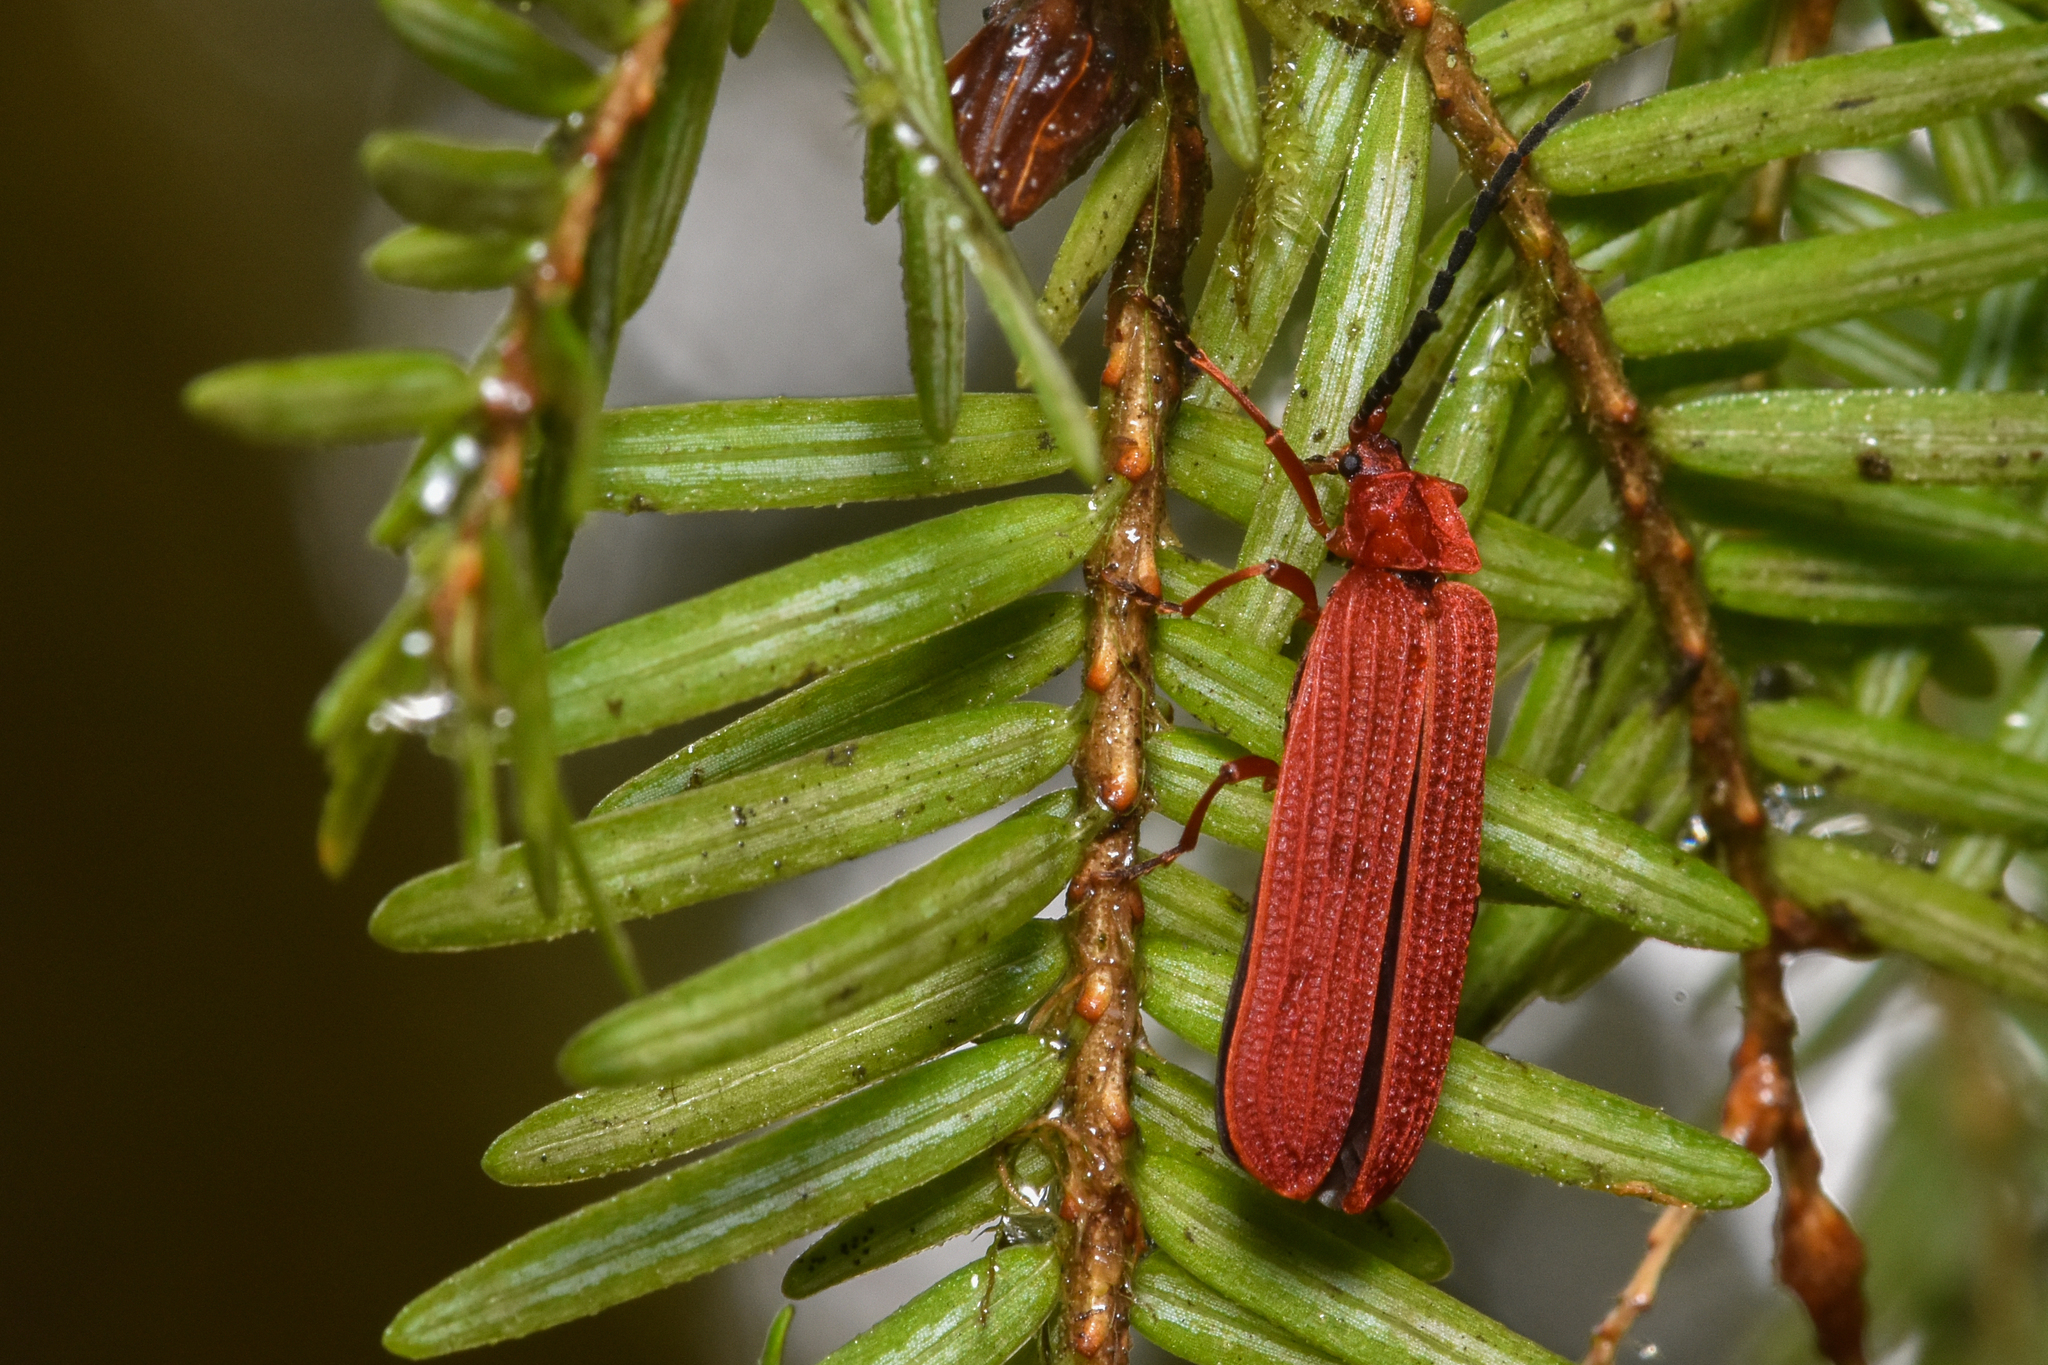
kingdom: Animalia
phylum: Arthropoda
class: Insecta
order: Coleoptera
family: Lycidae
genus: Punicealis
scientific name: Punicealis hamata
